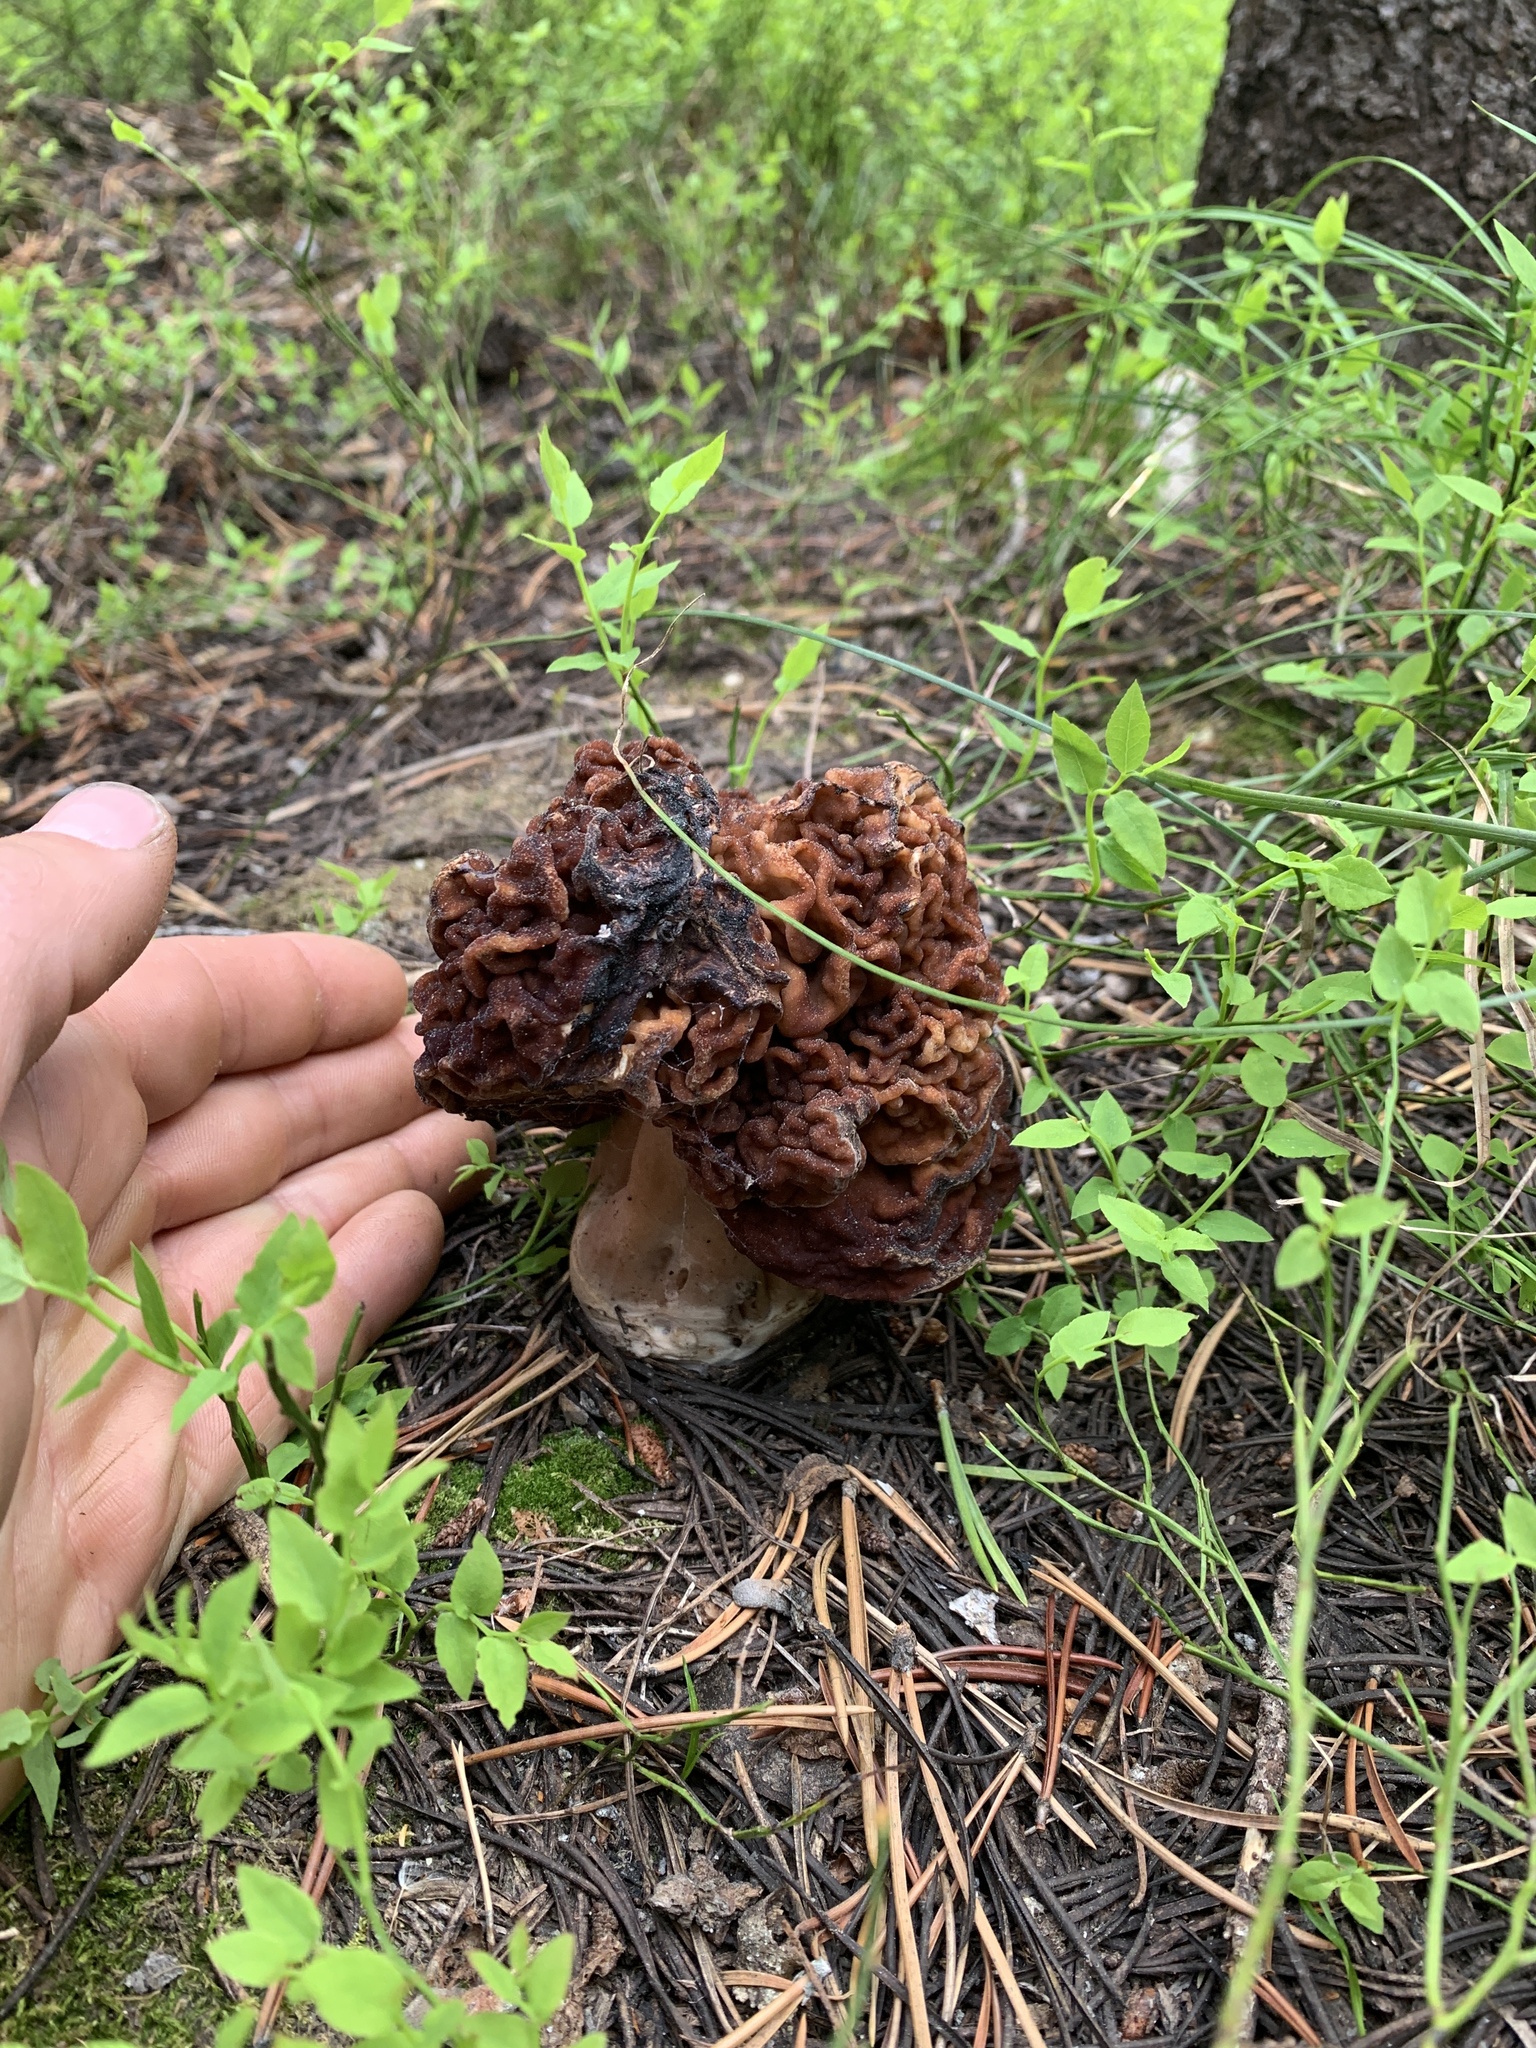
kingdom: Fungi
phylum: Ascomycota
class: Pezizomycetes
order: Pezizales
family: Discinaceae
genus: Gyromitra
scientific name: Gyromitra esculenta
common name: False morel
